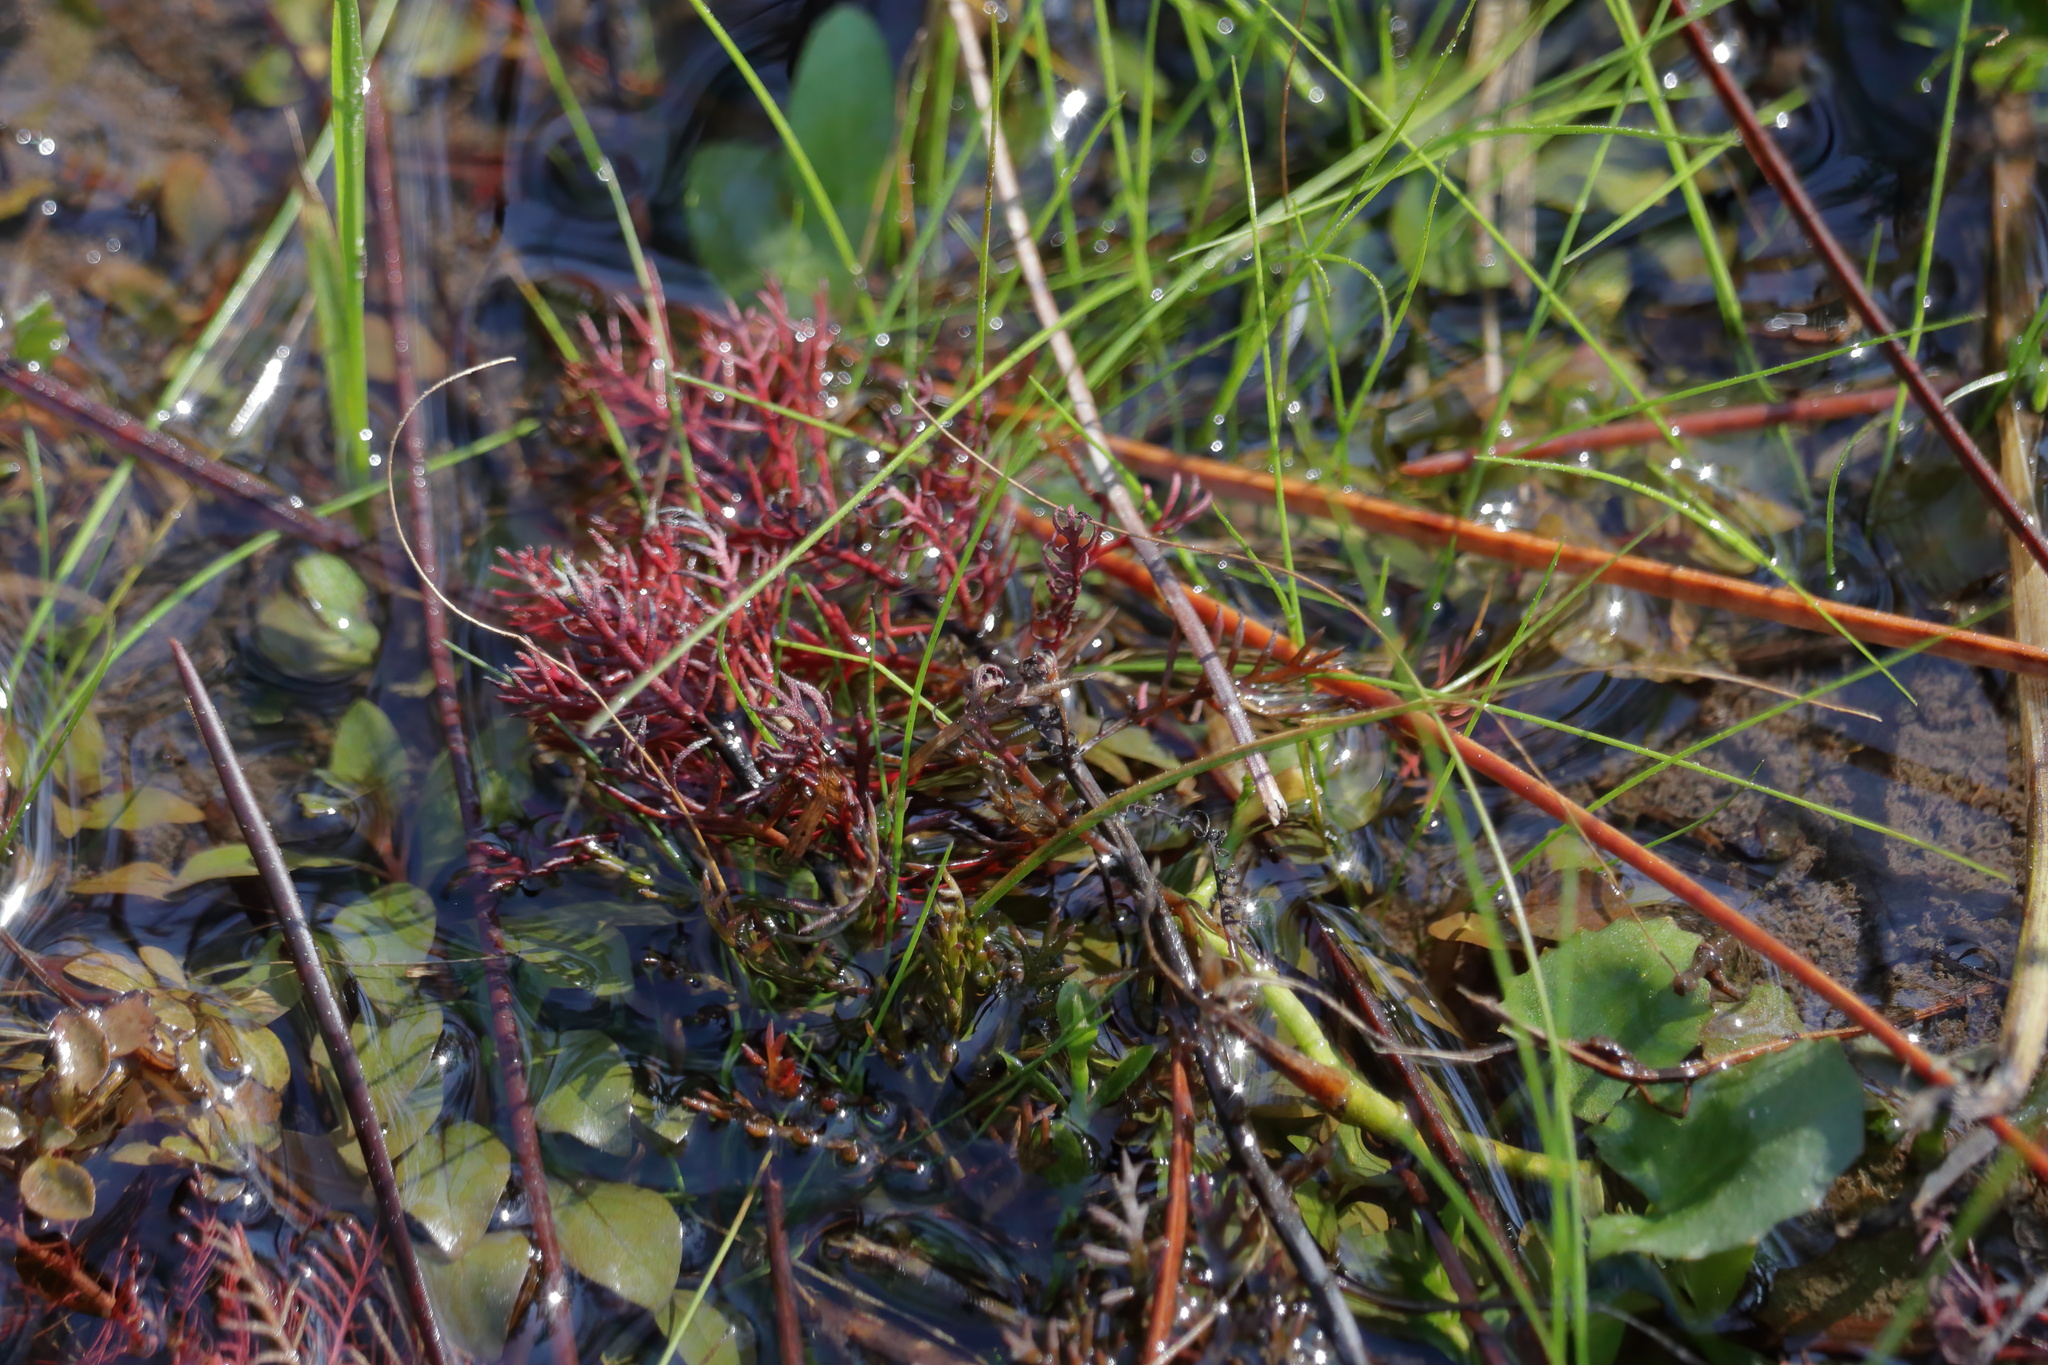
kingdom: Plantae
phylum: Tracheophyta
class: Magnoliopsida
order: Saxifragales
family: Haloragaceae
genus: Proserpinaca
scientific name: Proserpinaca pectinata
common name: Comb-leaved mermaidweed
